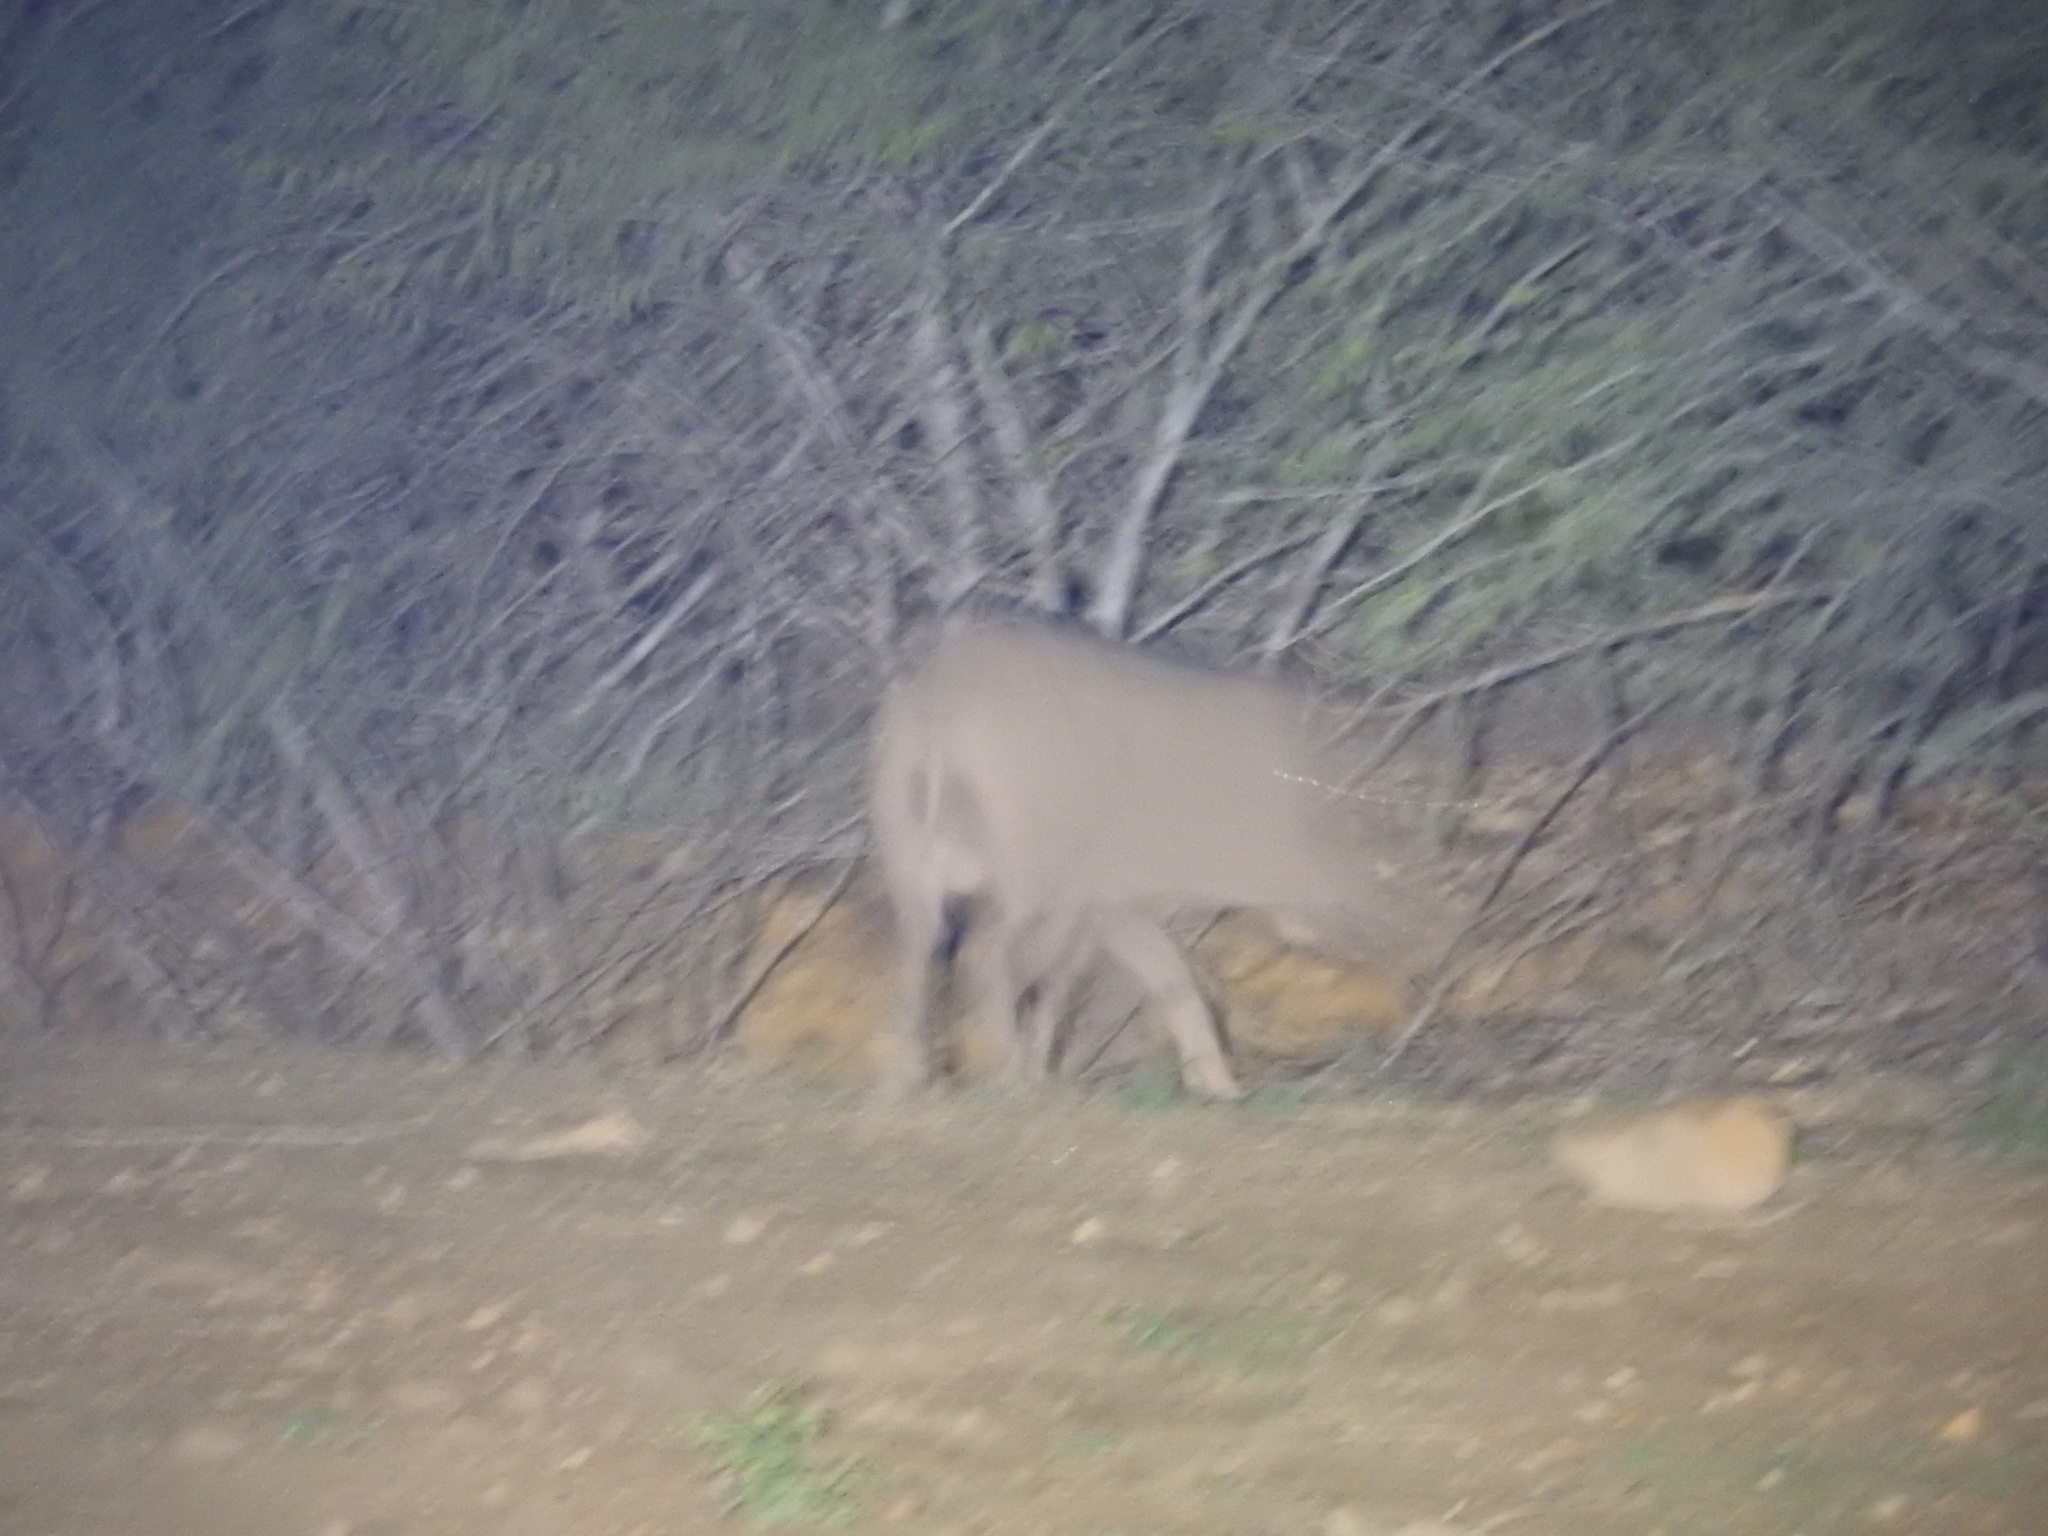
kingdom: Animalia
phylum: Chordata
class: Mammalia
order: Artiodactyla
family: Suidae
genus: Sus
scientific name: Sus scrofa
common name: Wild boar
